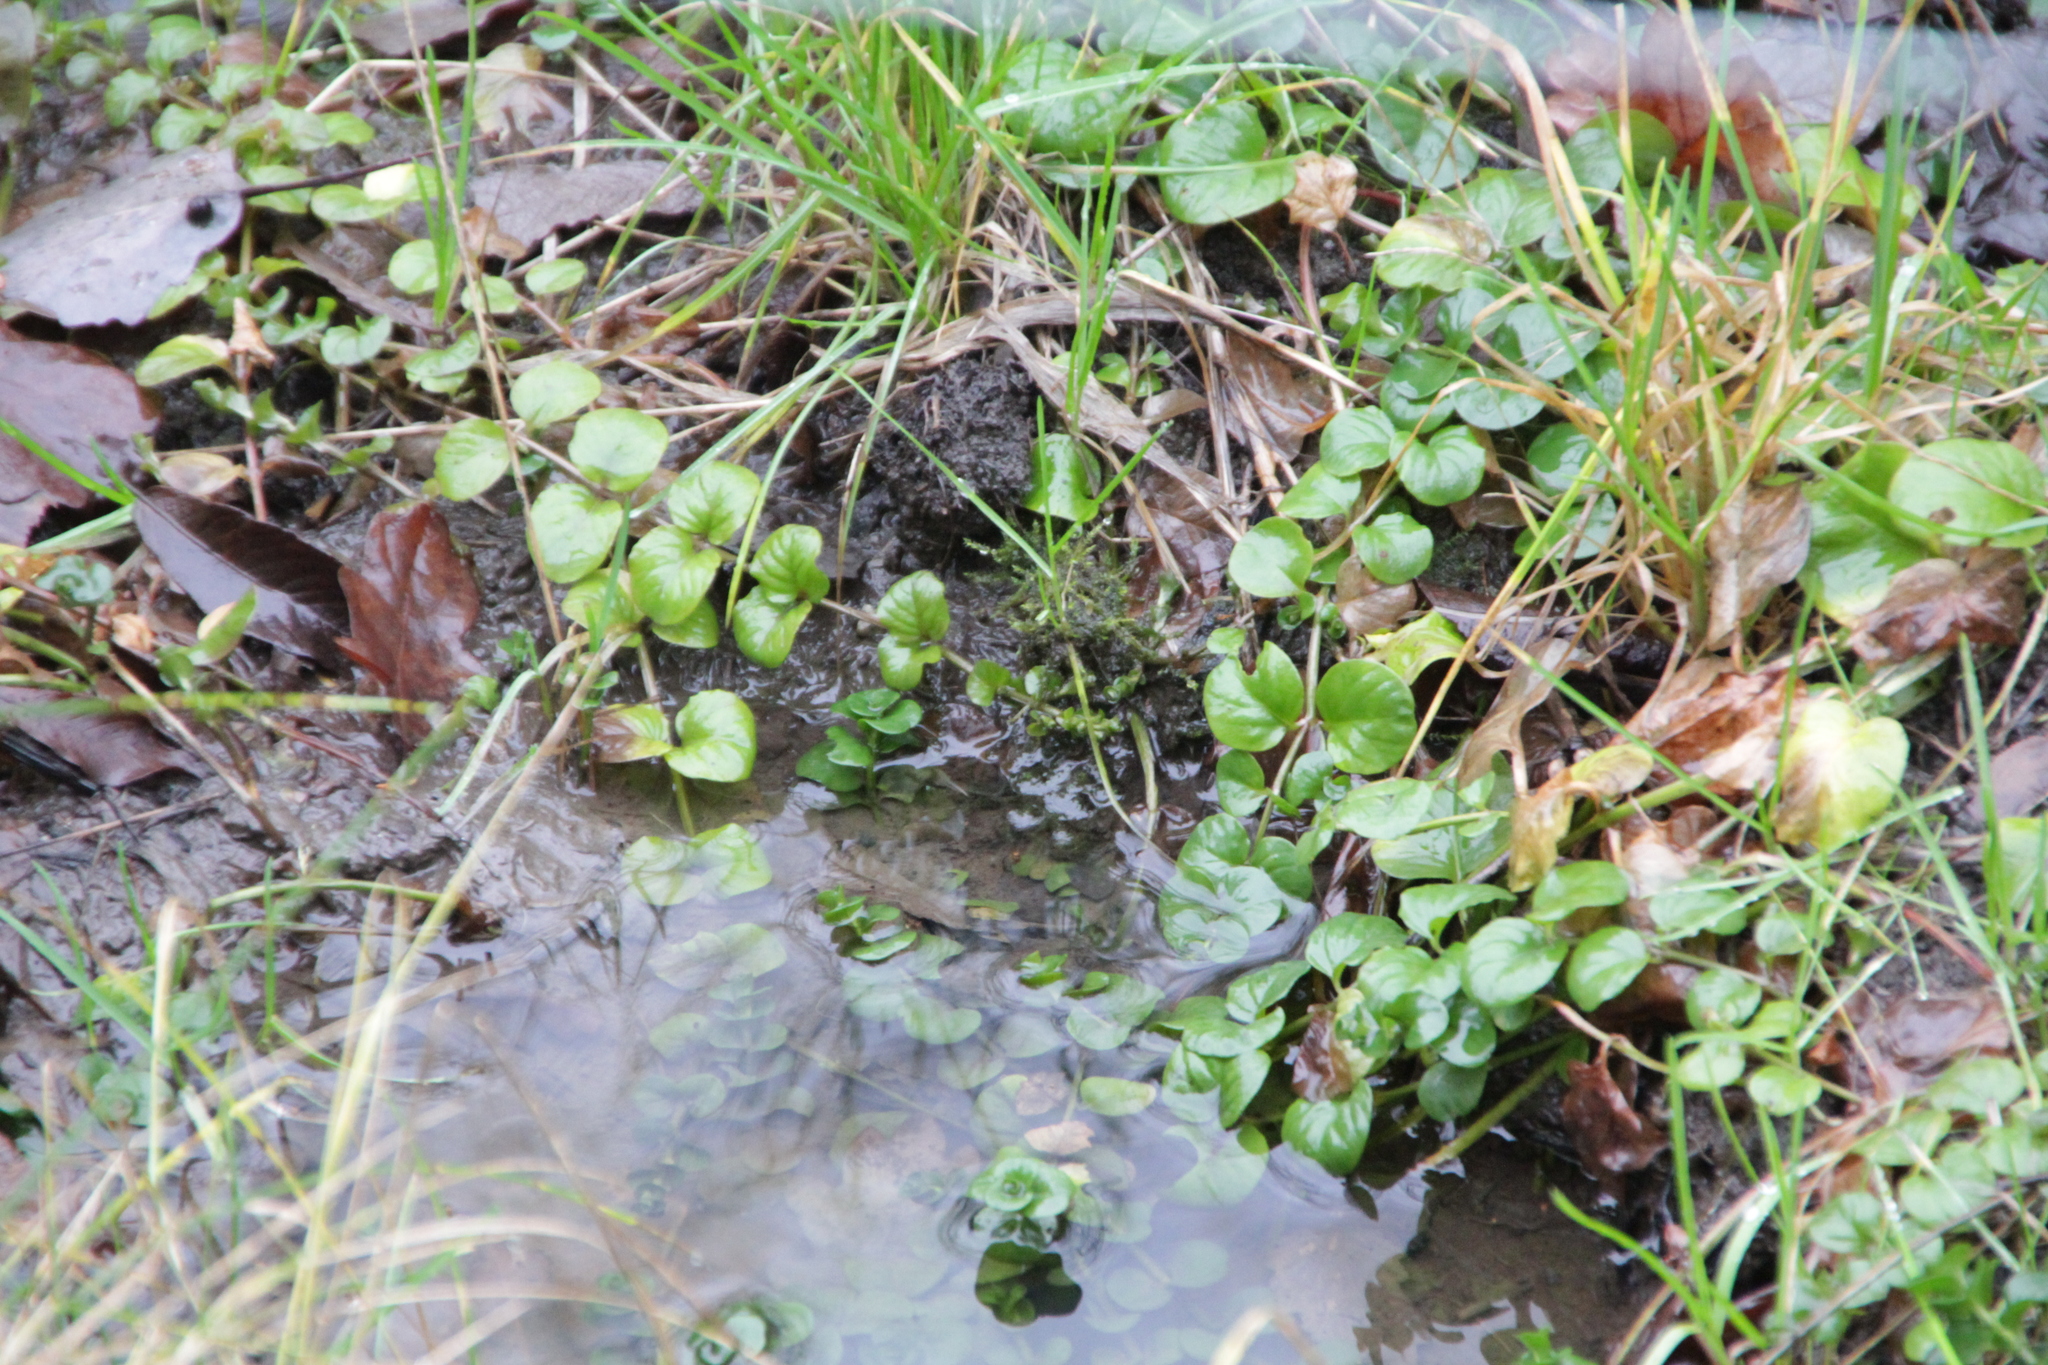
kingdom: Plantae
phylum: Tracheophyta
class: Magnoliopsida
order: Ericales
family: Primulaceae
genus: Lysimachia
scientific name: Lysimachia nummularia
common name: Moneywort
